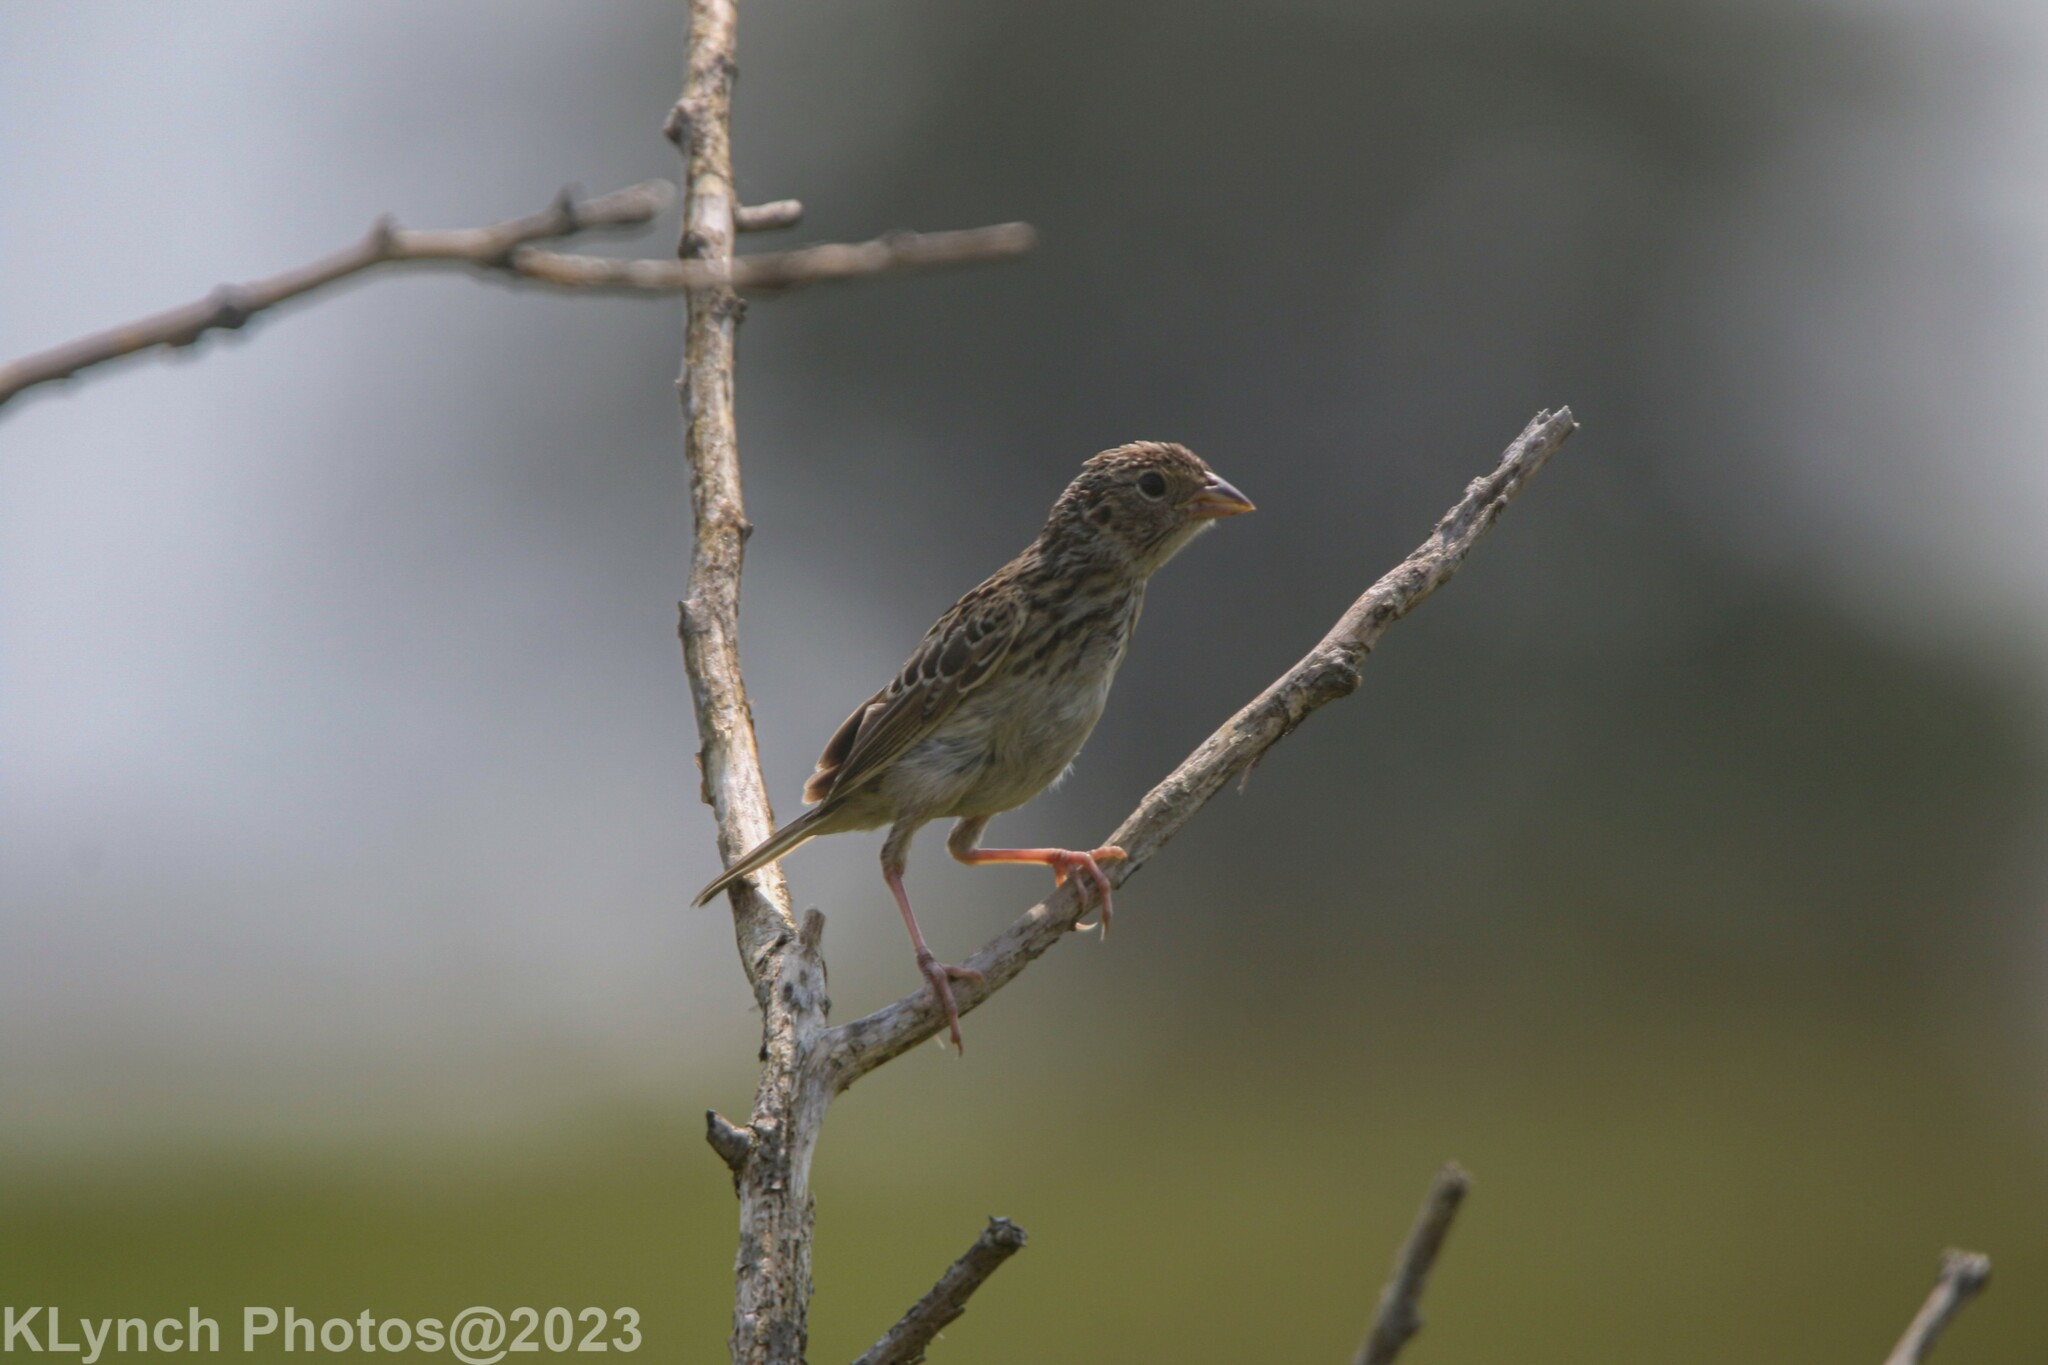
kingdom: Animalia
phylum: Chordata
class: Aves
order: Passeriformes
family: Passerellidae
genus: Ammodramus
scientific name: Ammodramus savannarum
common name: Grasshopper sparrow
